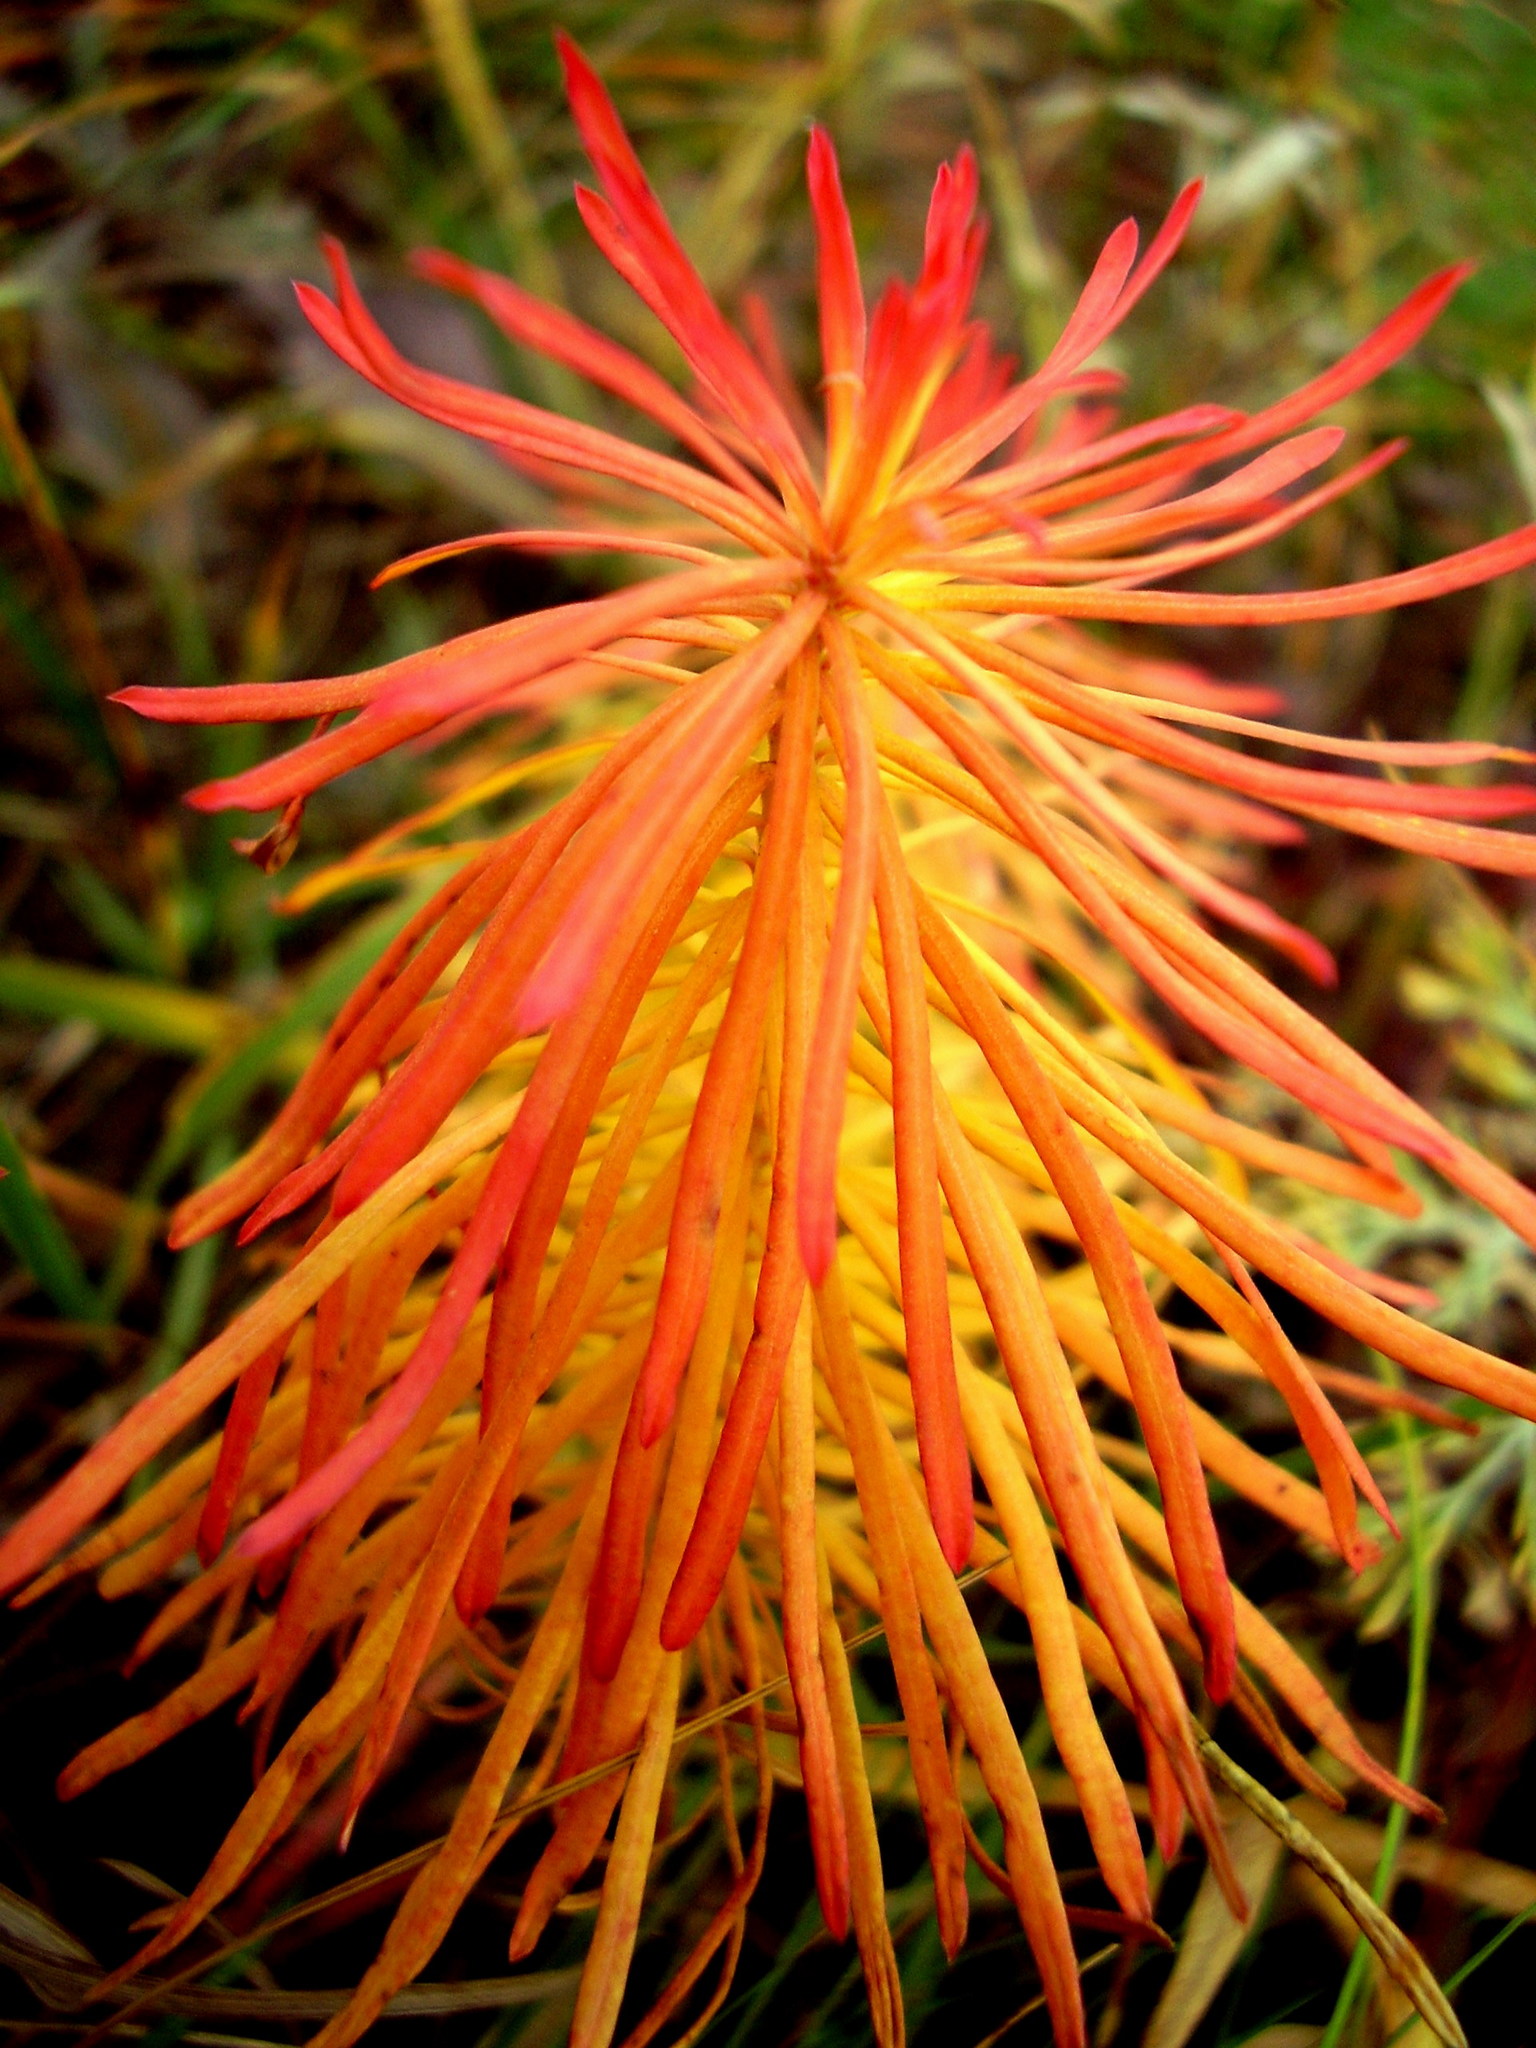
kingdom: Plantae
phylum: Tracheophyta
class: Magnoliopsida
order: Malpighiales
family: Euphorbiaceae
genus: Euphorbia
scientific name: Euphorbia cyparissias
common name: Cypress spurge
